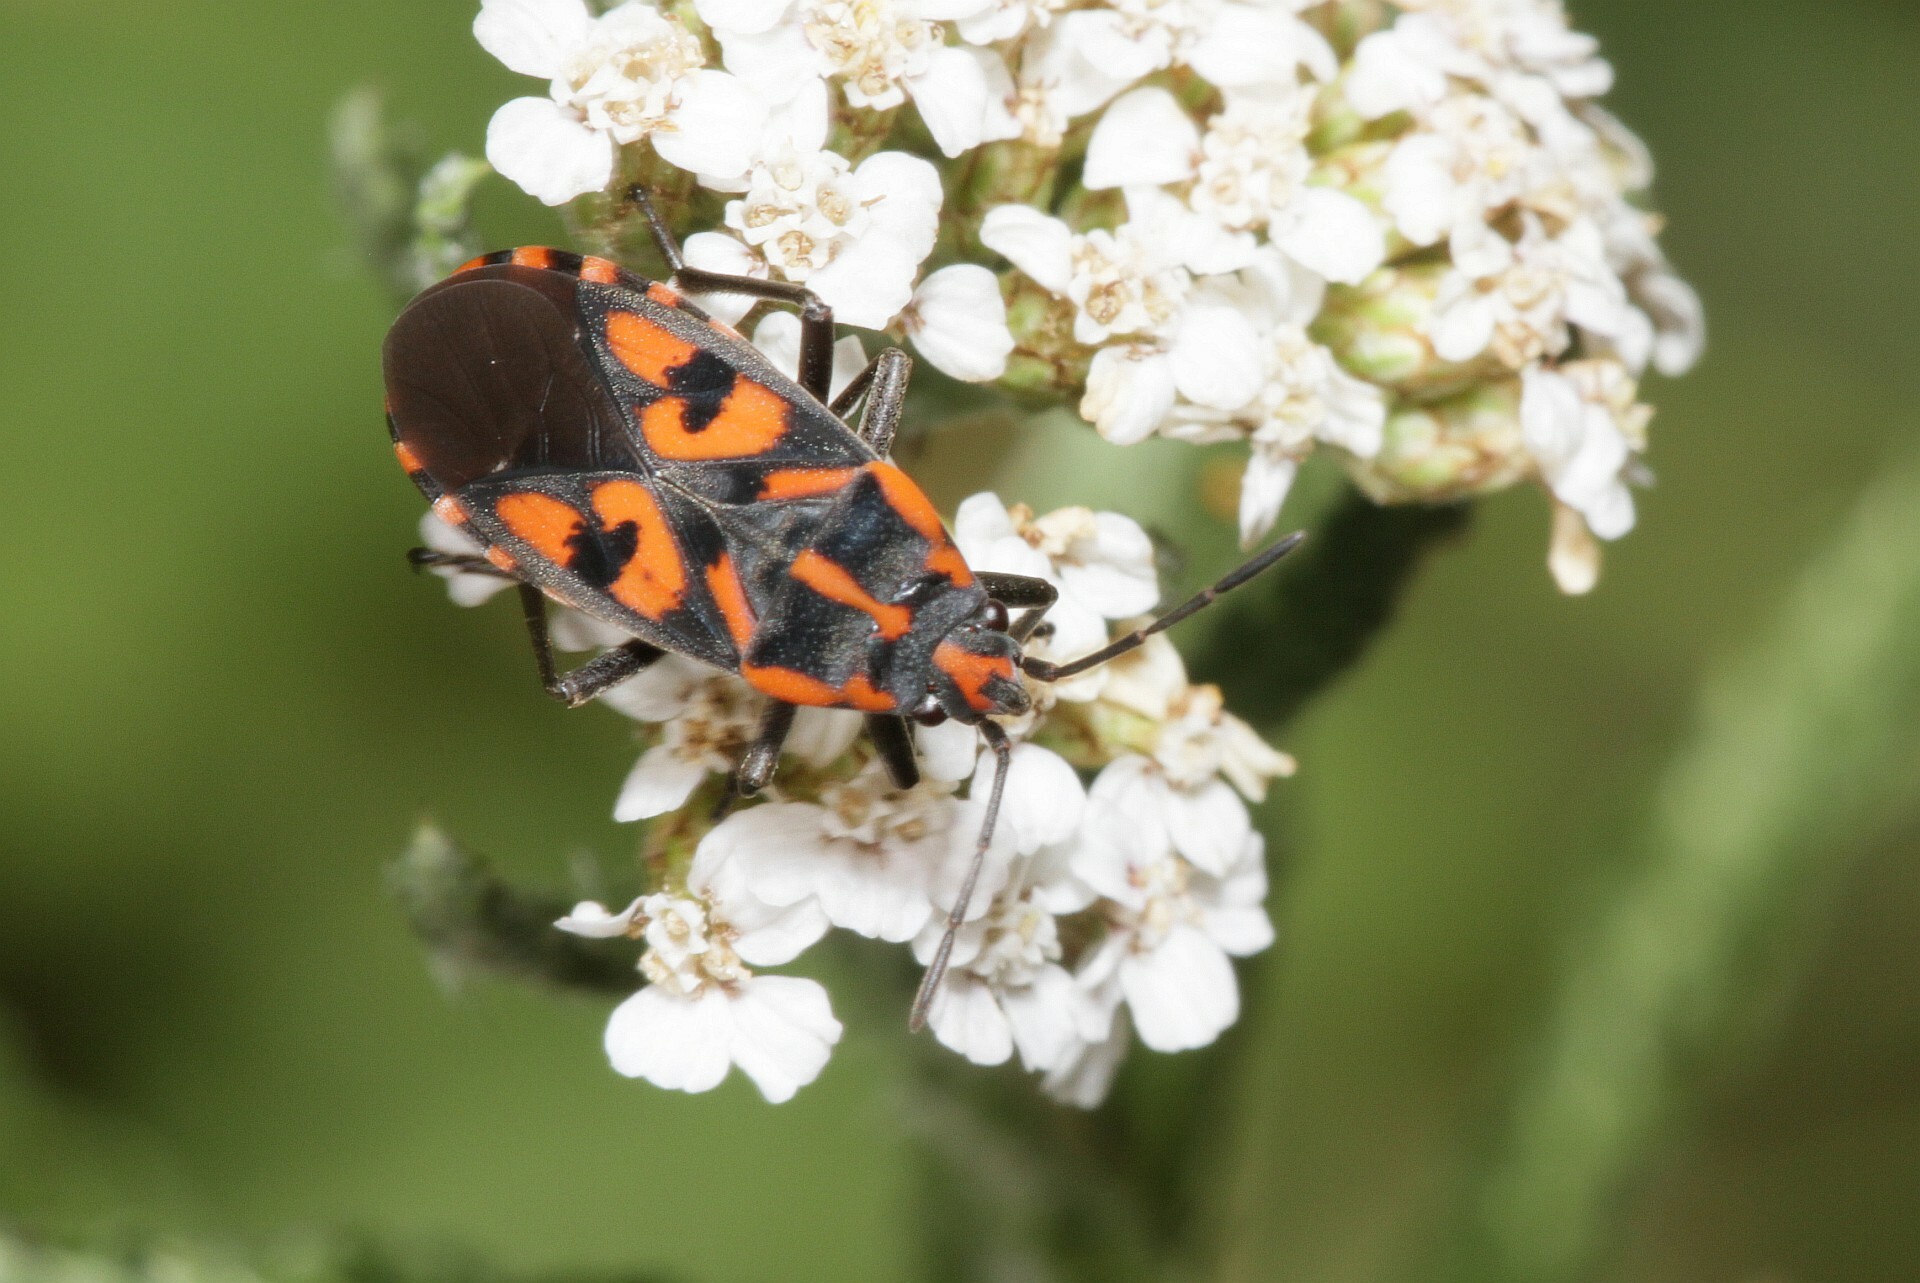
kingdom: Animalia
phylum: Arthropoda
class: Insecta
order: Hemiptera
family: Lygaeidae
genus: Spilostethus
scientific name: Spilostethus saxatilis
